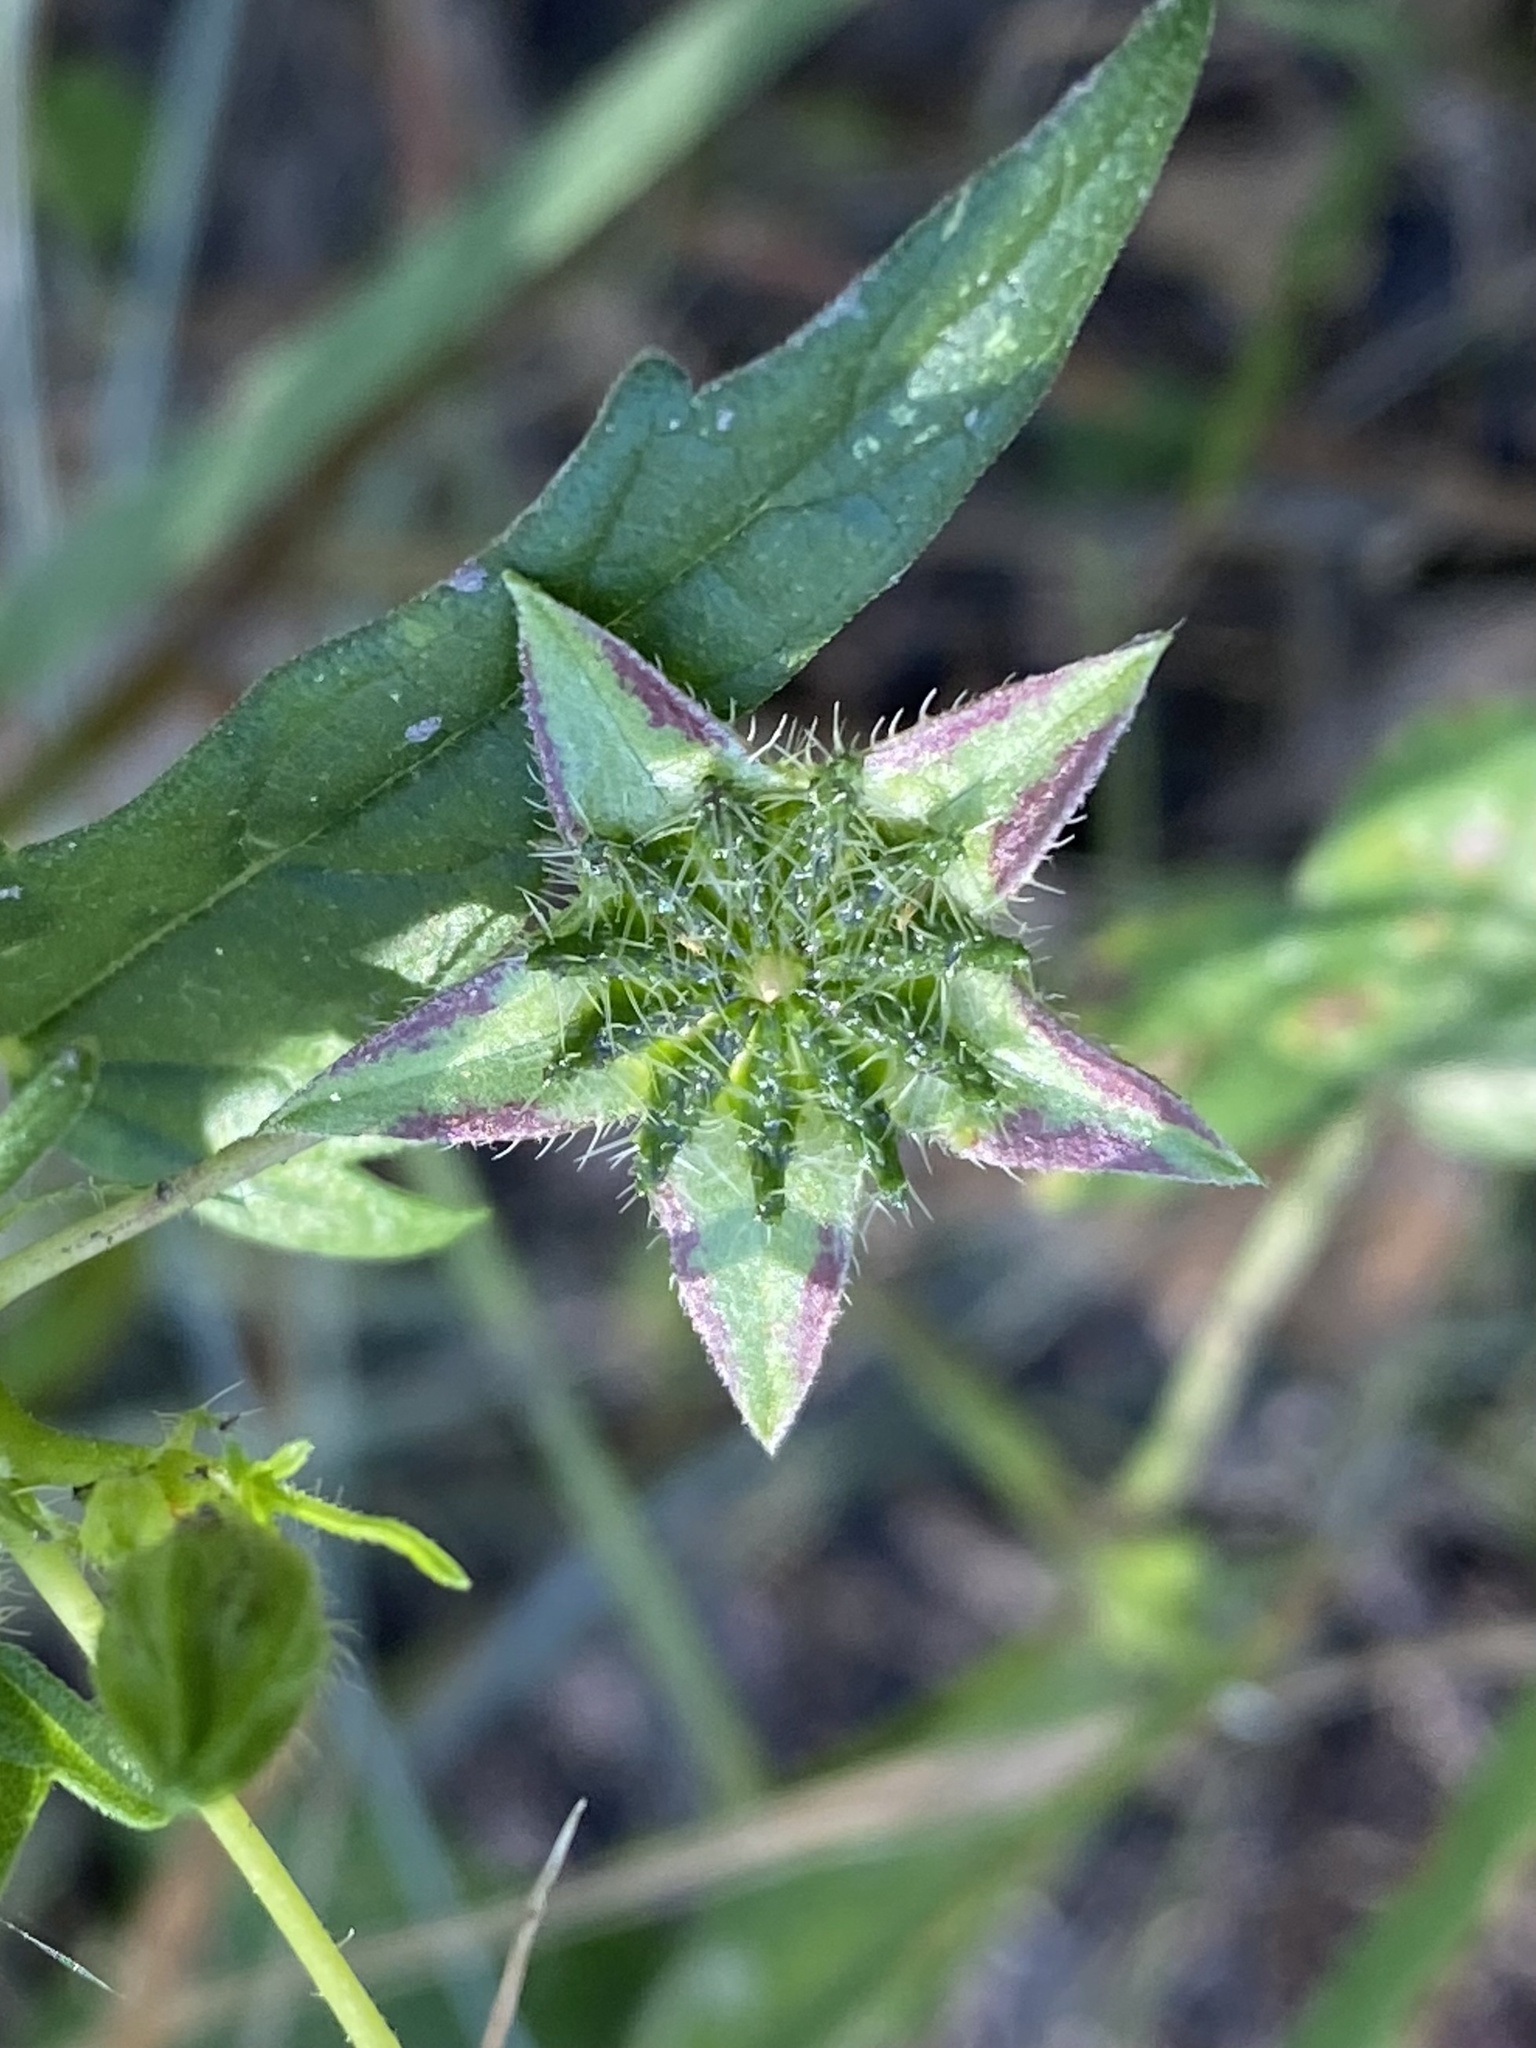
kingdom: Plantae
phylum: Tracheophyta
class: Magnoliopsida
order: Malvales
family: Malvaceae
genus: Anoda
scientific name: Anoda cristata
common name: Spurred anoda
